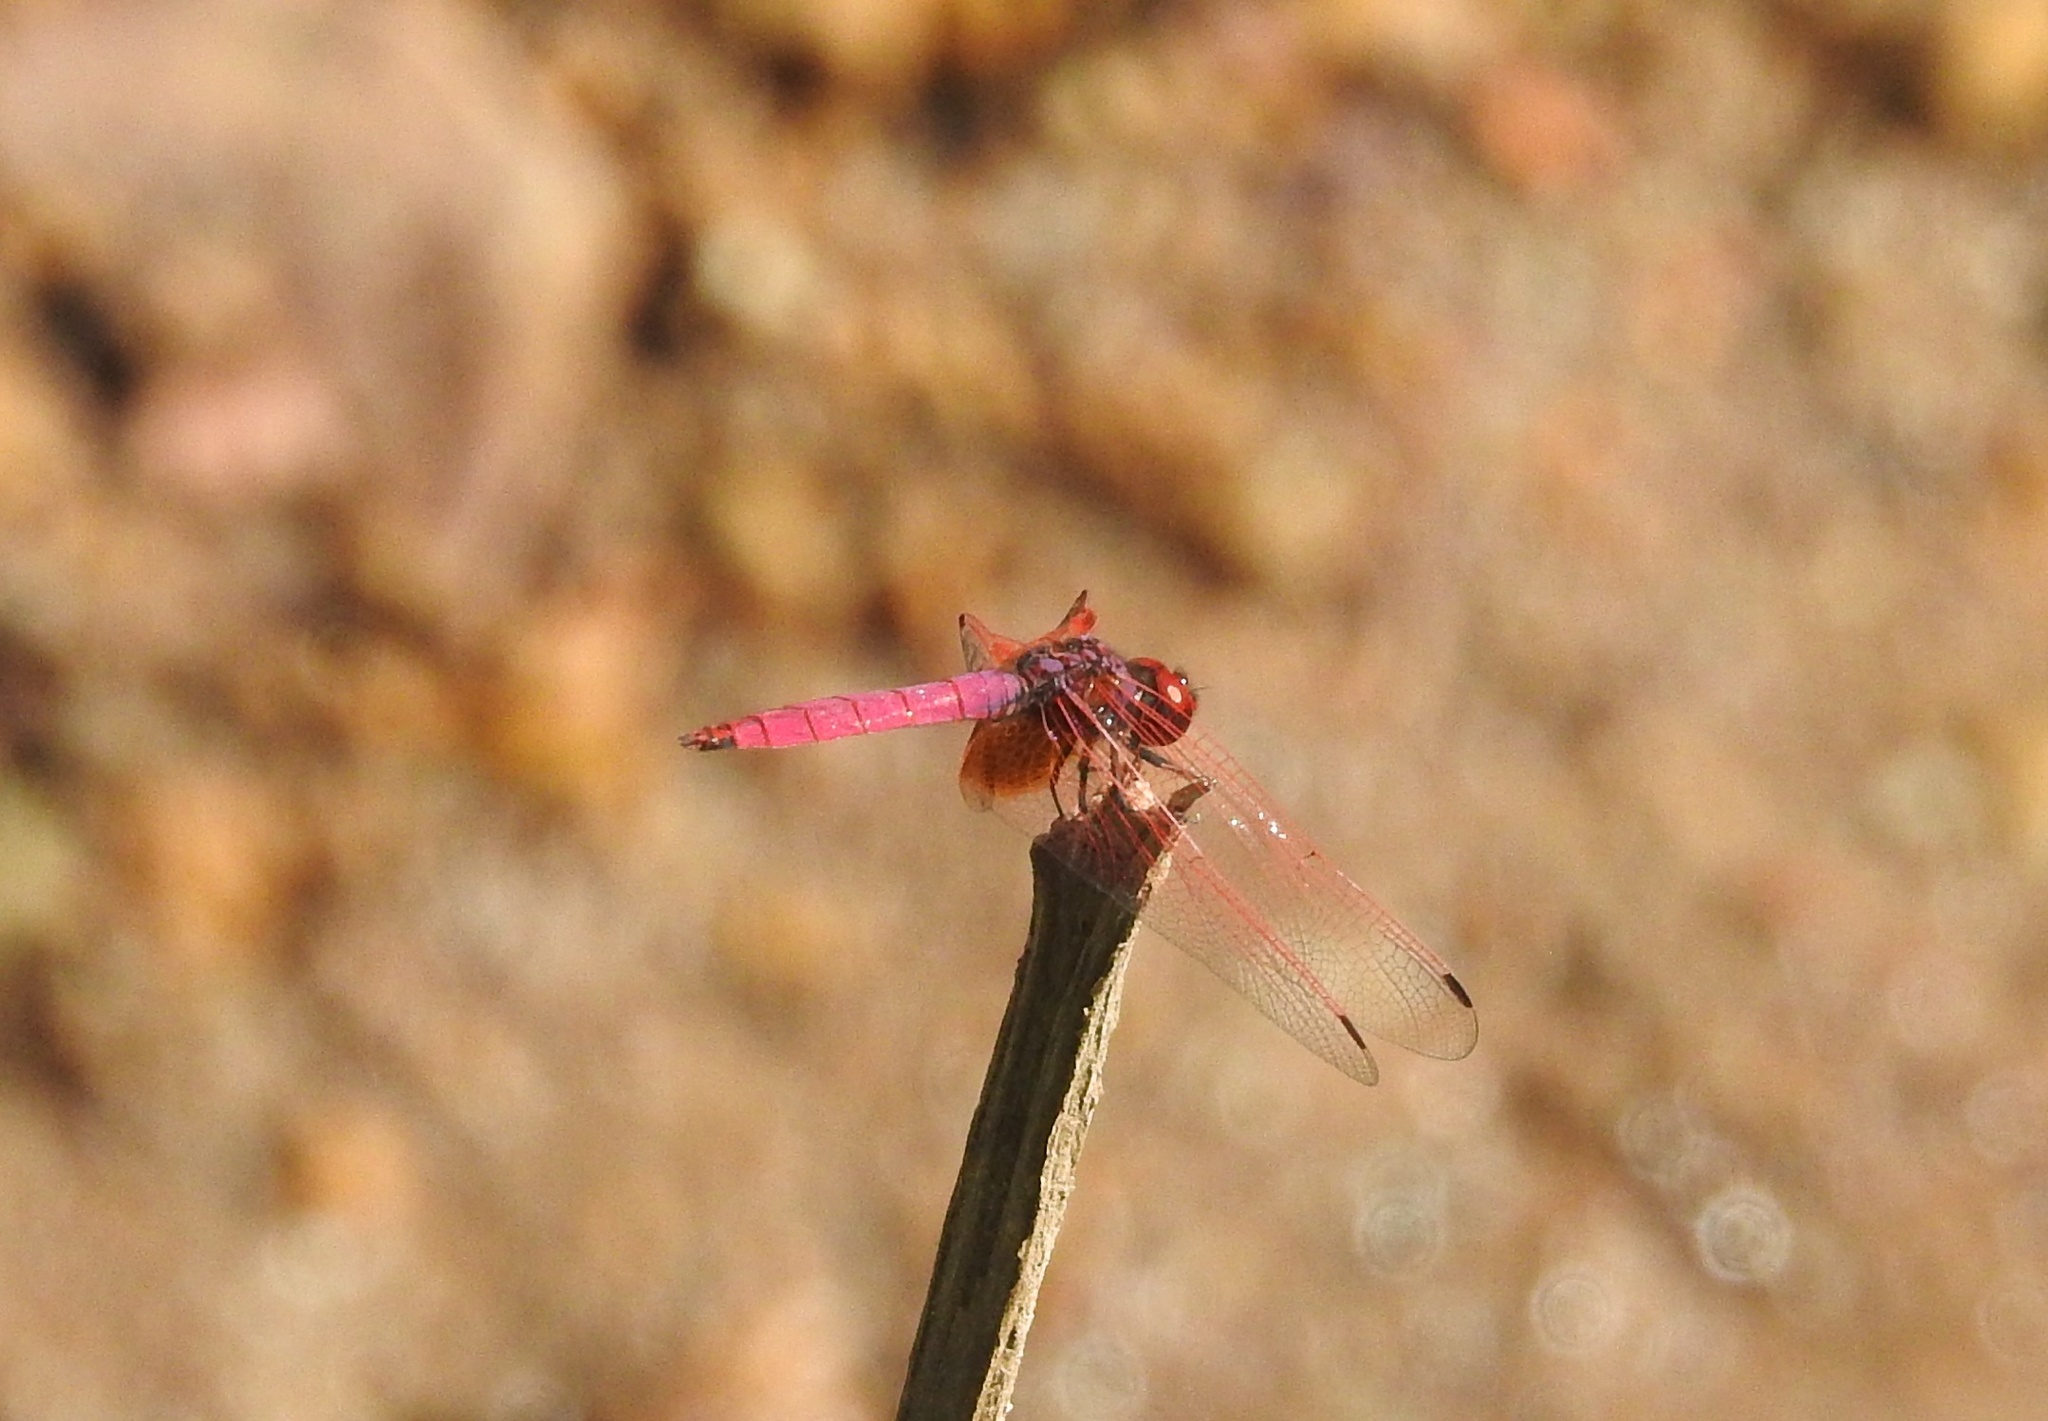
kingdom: Animalia
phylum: Arthropoda
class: Insecta
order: Odonata
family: Libellulidae
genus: Trithemis
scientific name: Trithemis aurora
